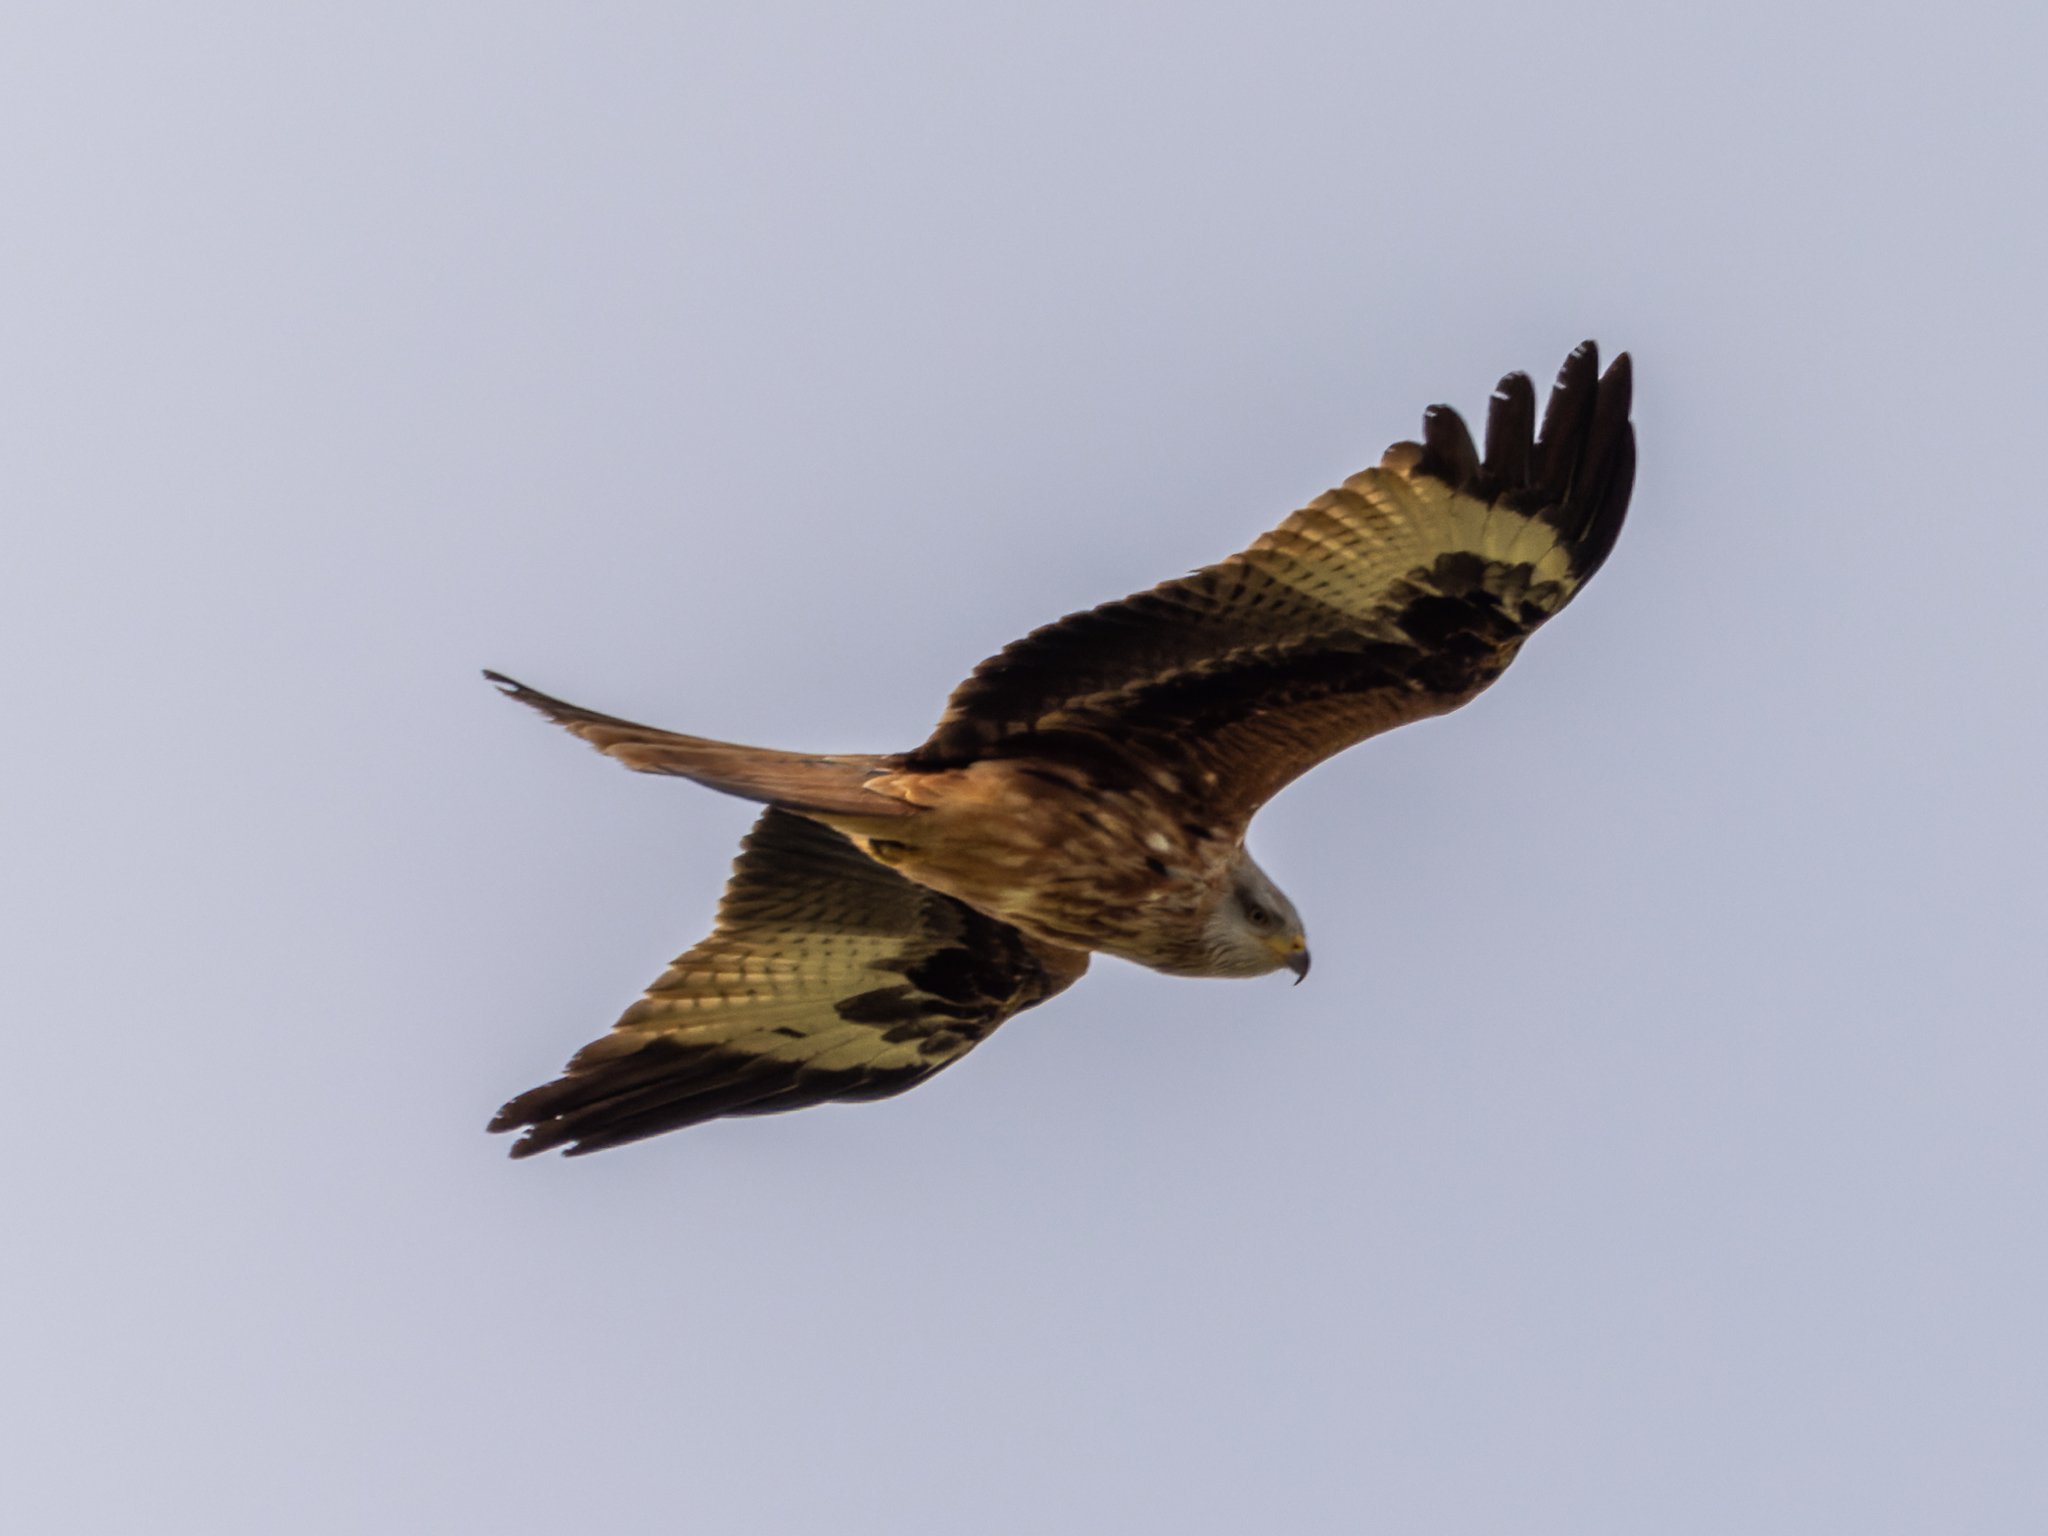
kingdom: Animalia
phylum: Chordata
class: Aves
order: Accipitriformes
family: Accipitridae
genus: Milvus
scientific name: Milvus milvus
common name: Red kite
